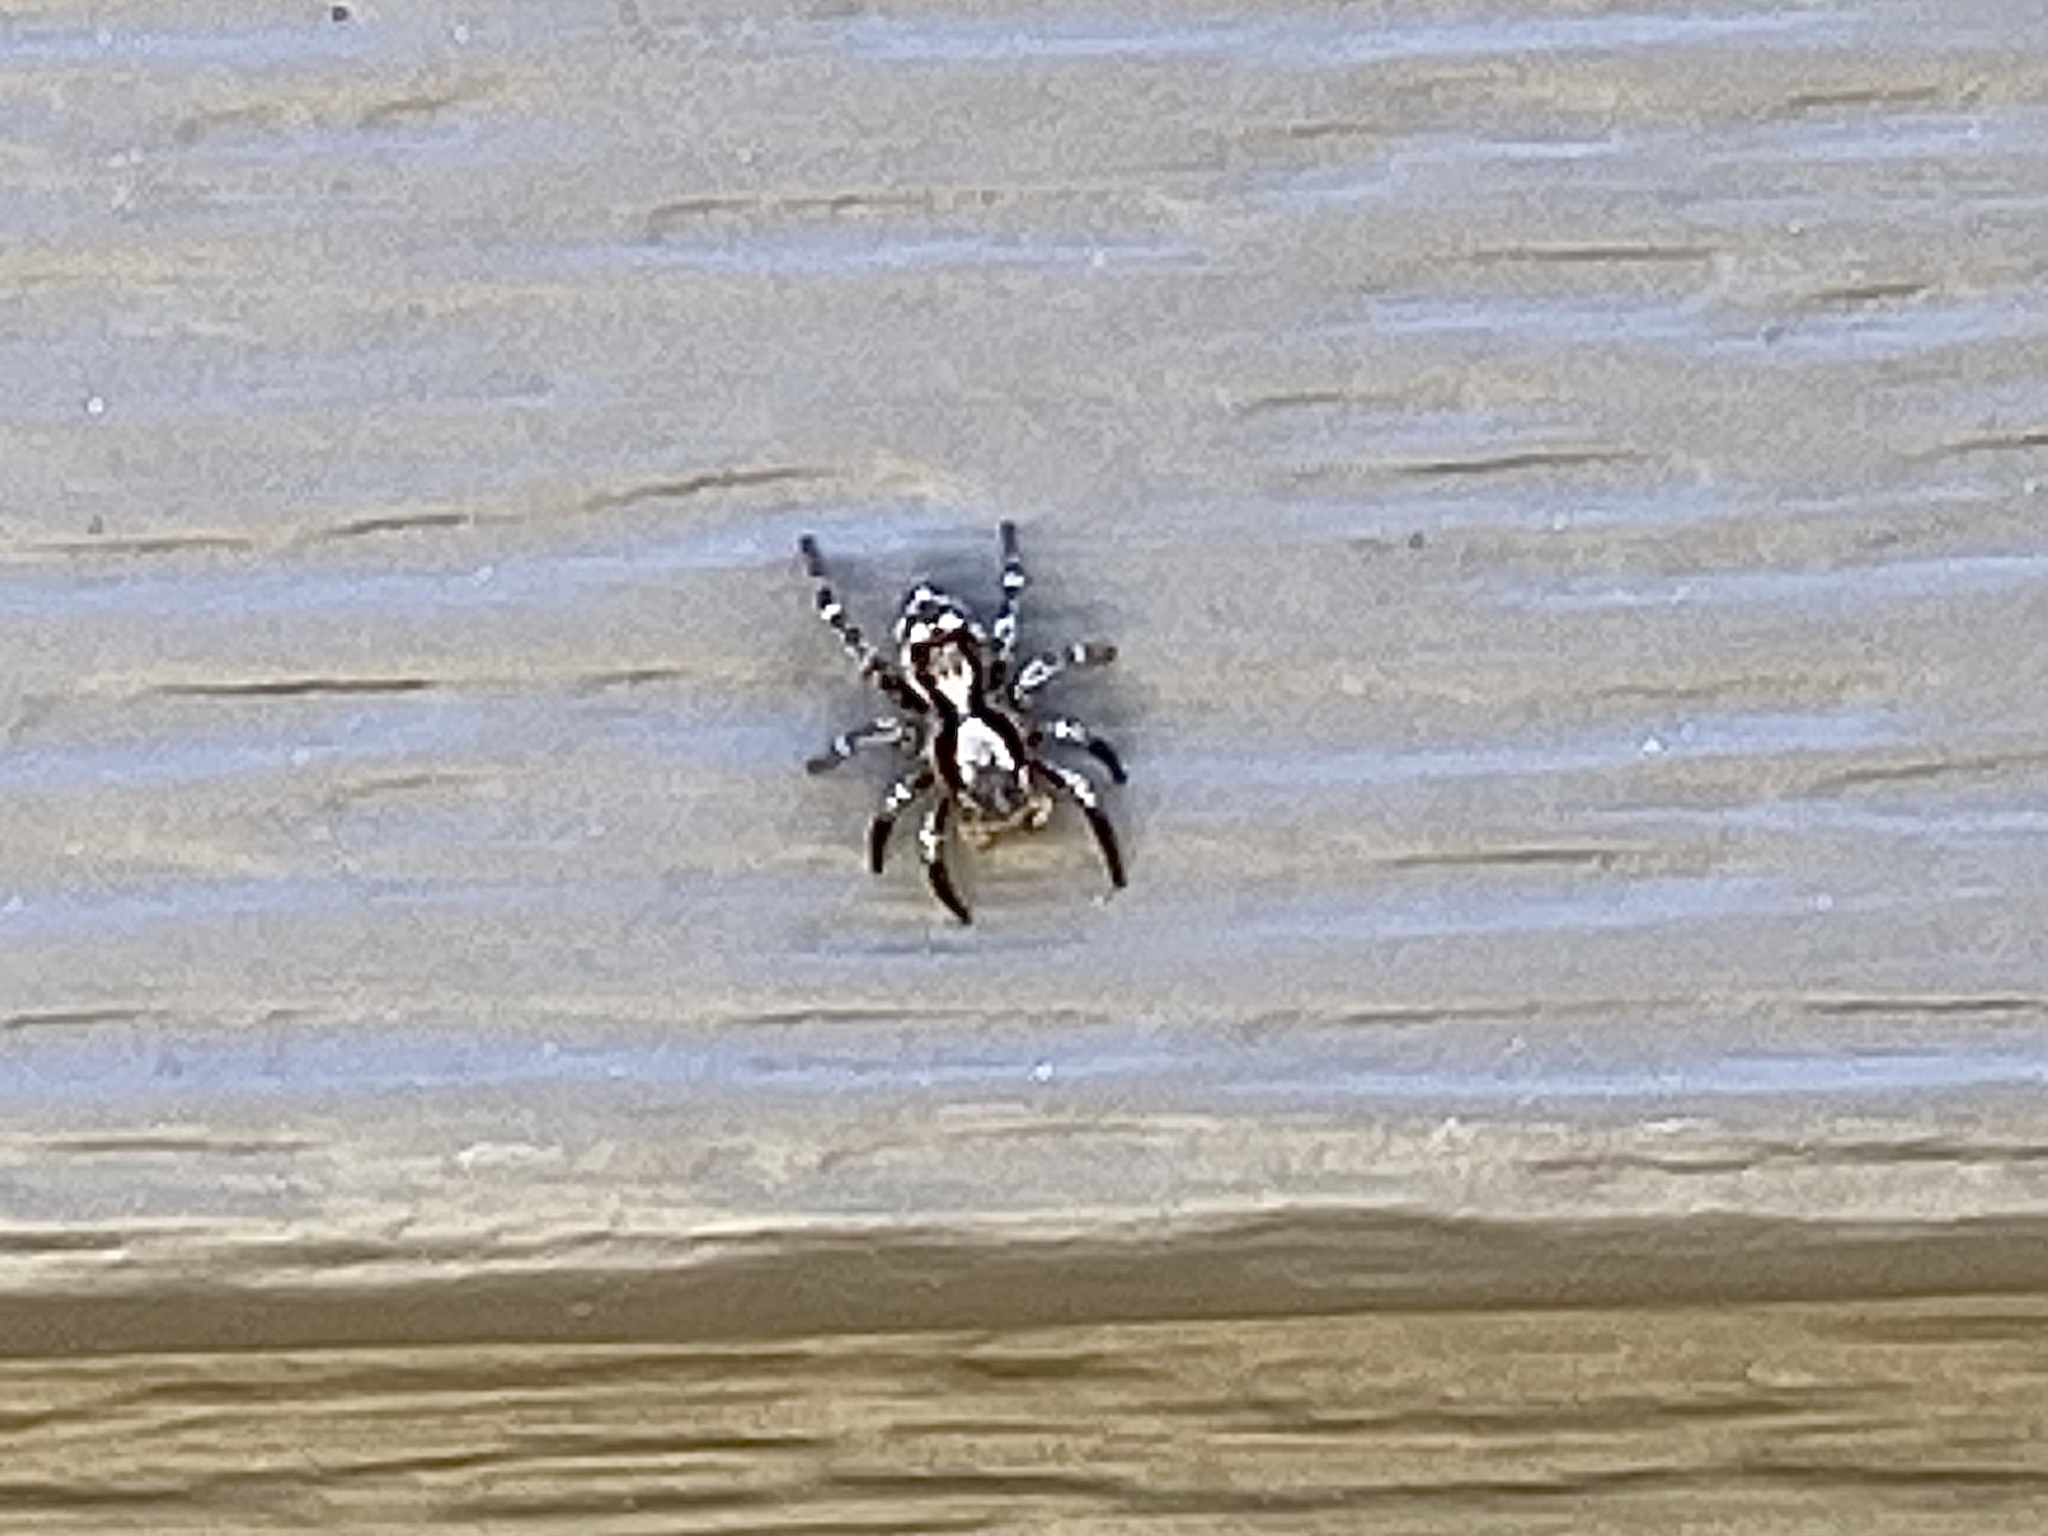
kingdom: Animalia
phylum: Arthropoda
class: Arachnida
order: Araneae
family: Salticidae
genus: Naphrys
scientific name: Naphrys pulex
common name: Flea jumping spider
